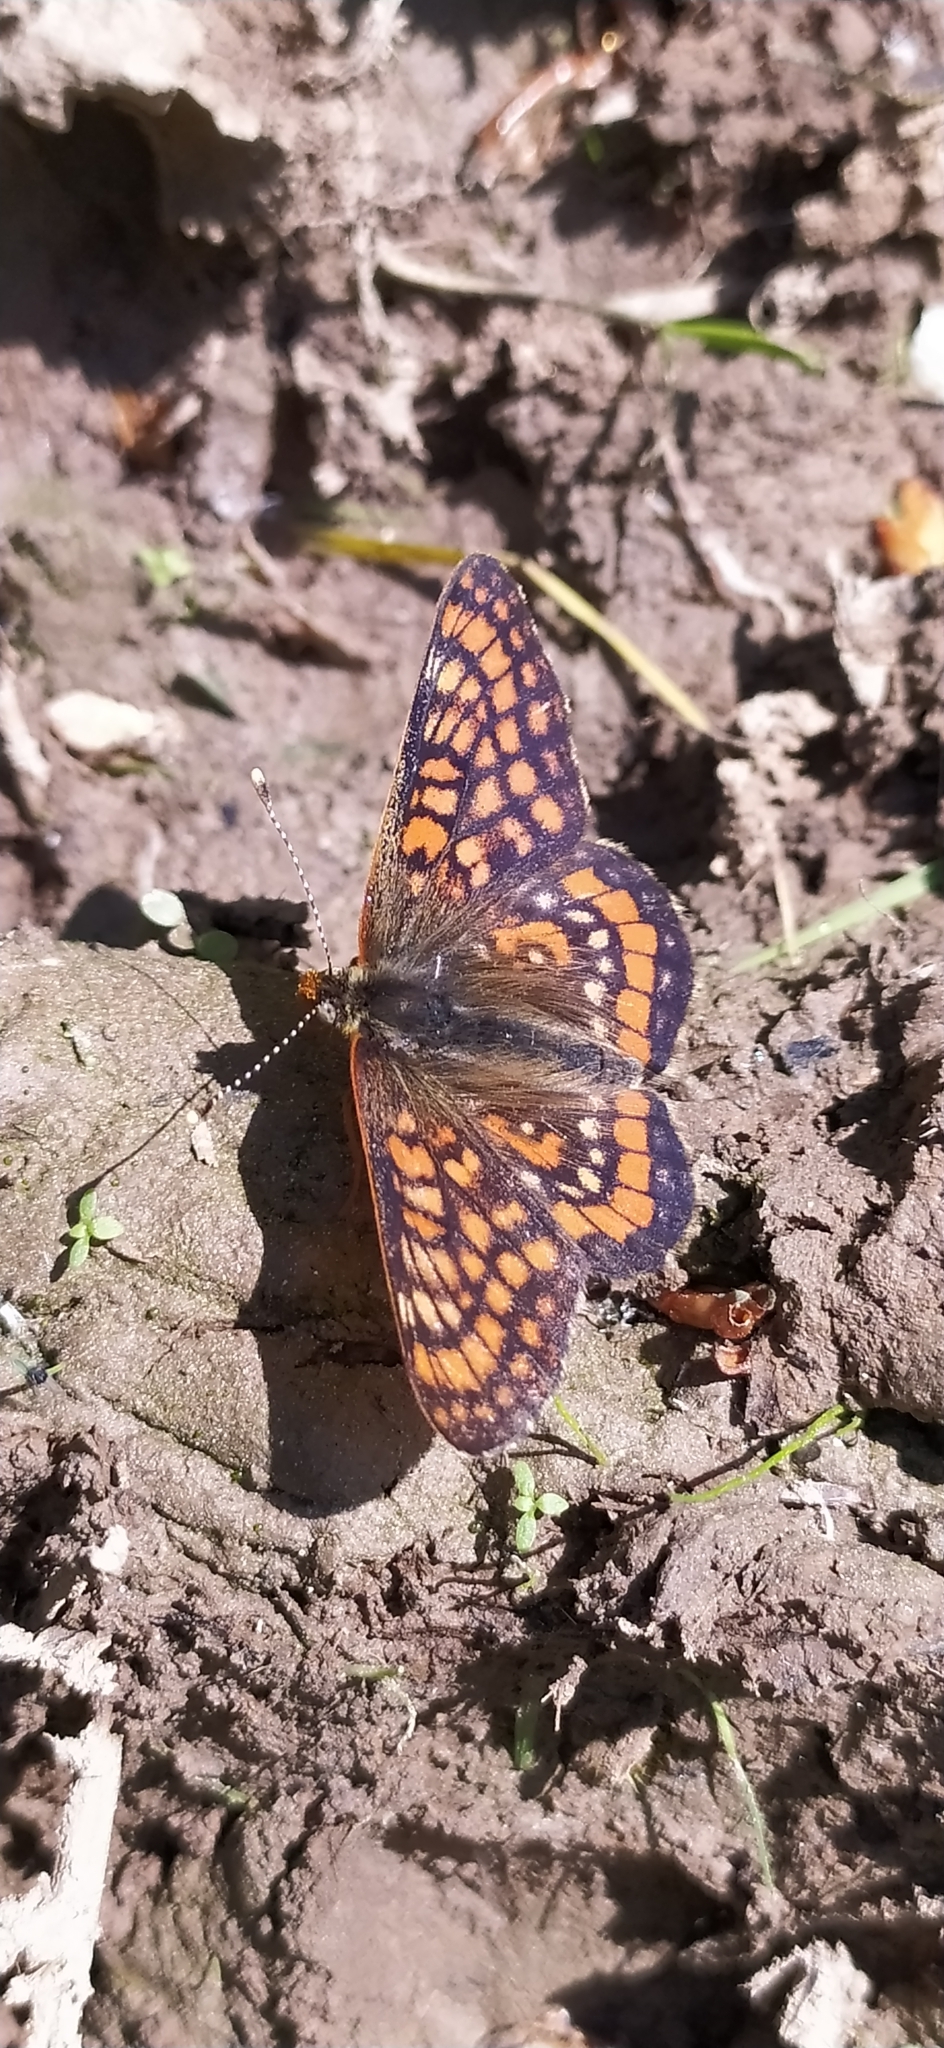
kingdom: Animalia
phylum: Arthropoda
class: Insecta
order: Lepidoptera
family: Nymphalidae
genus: Euphydryas
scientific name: Euphydryas maturna
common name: Scarce fritillary
